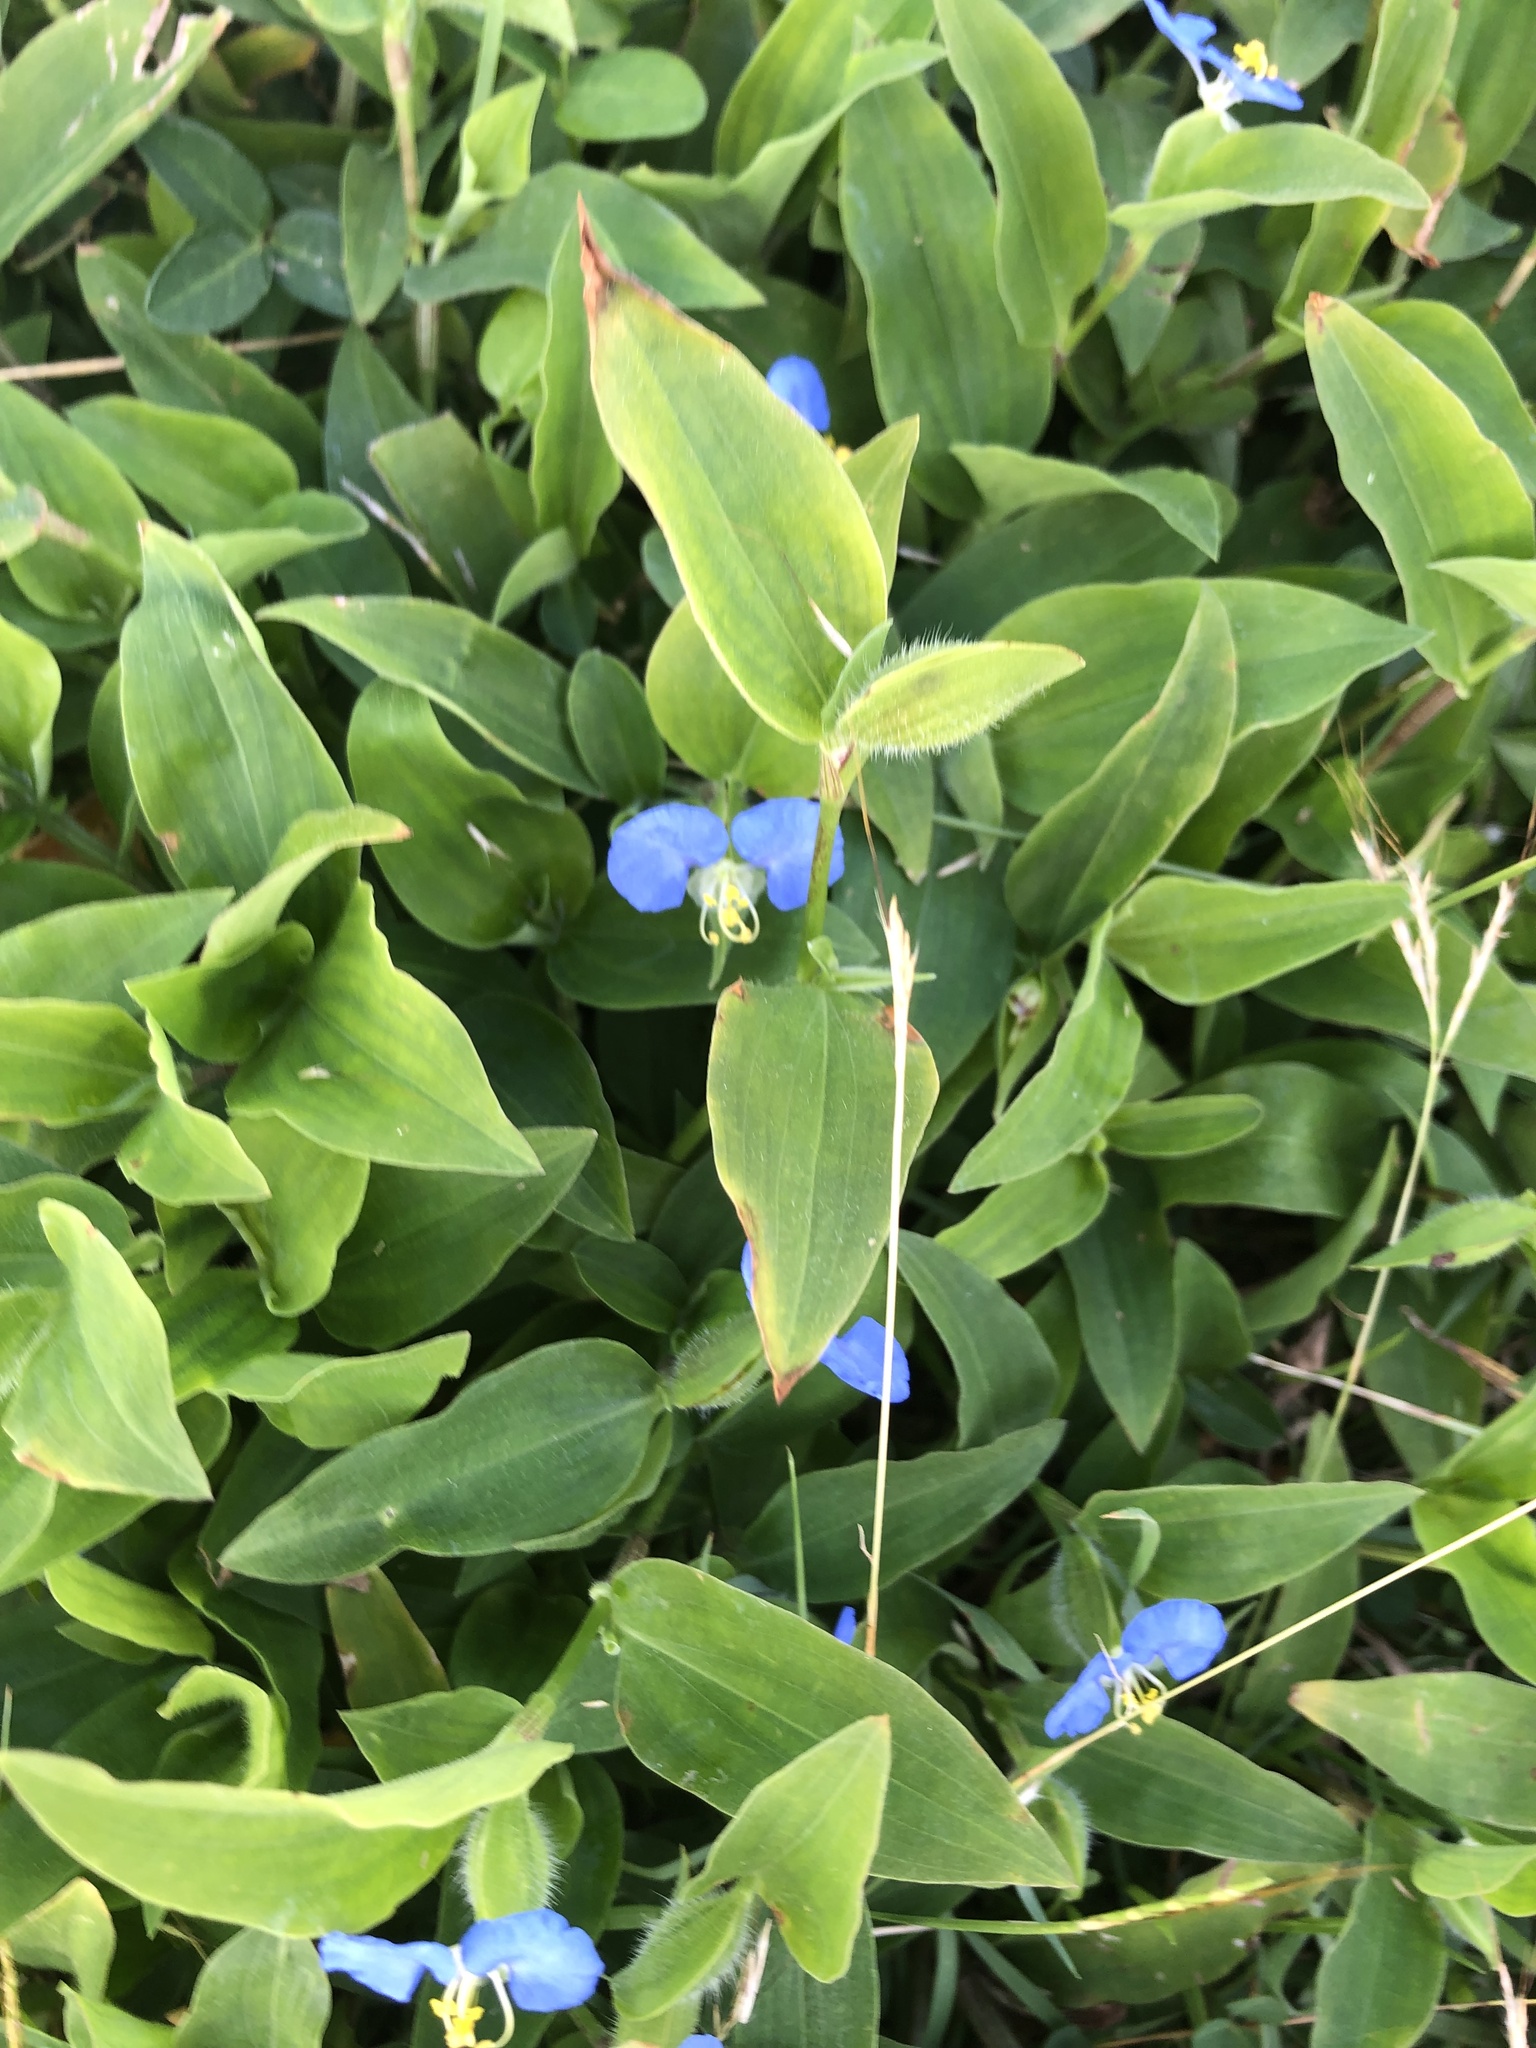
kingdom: Plantae
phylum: Tracheophyta
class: Liliopsida
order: Commelinales
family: Commelinaceae
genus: Commelina
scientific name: Commelina erecta
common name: Blousel blommetjie
